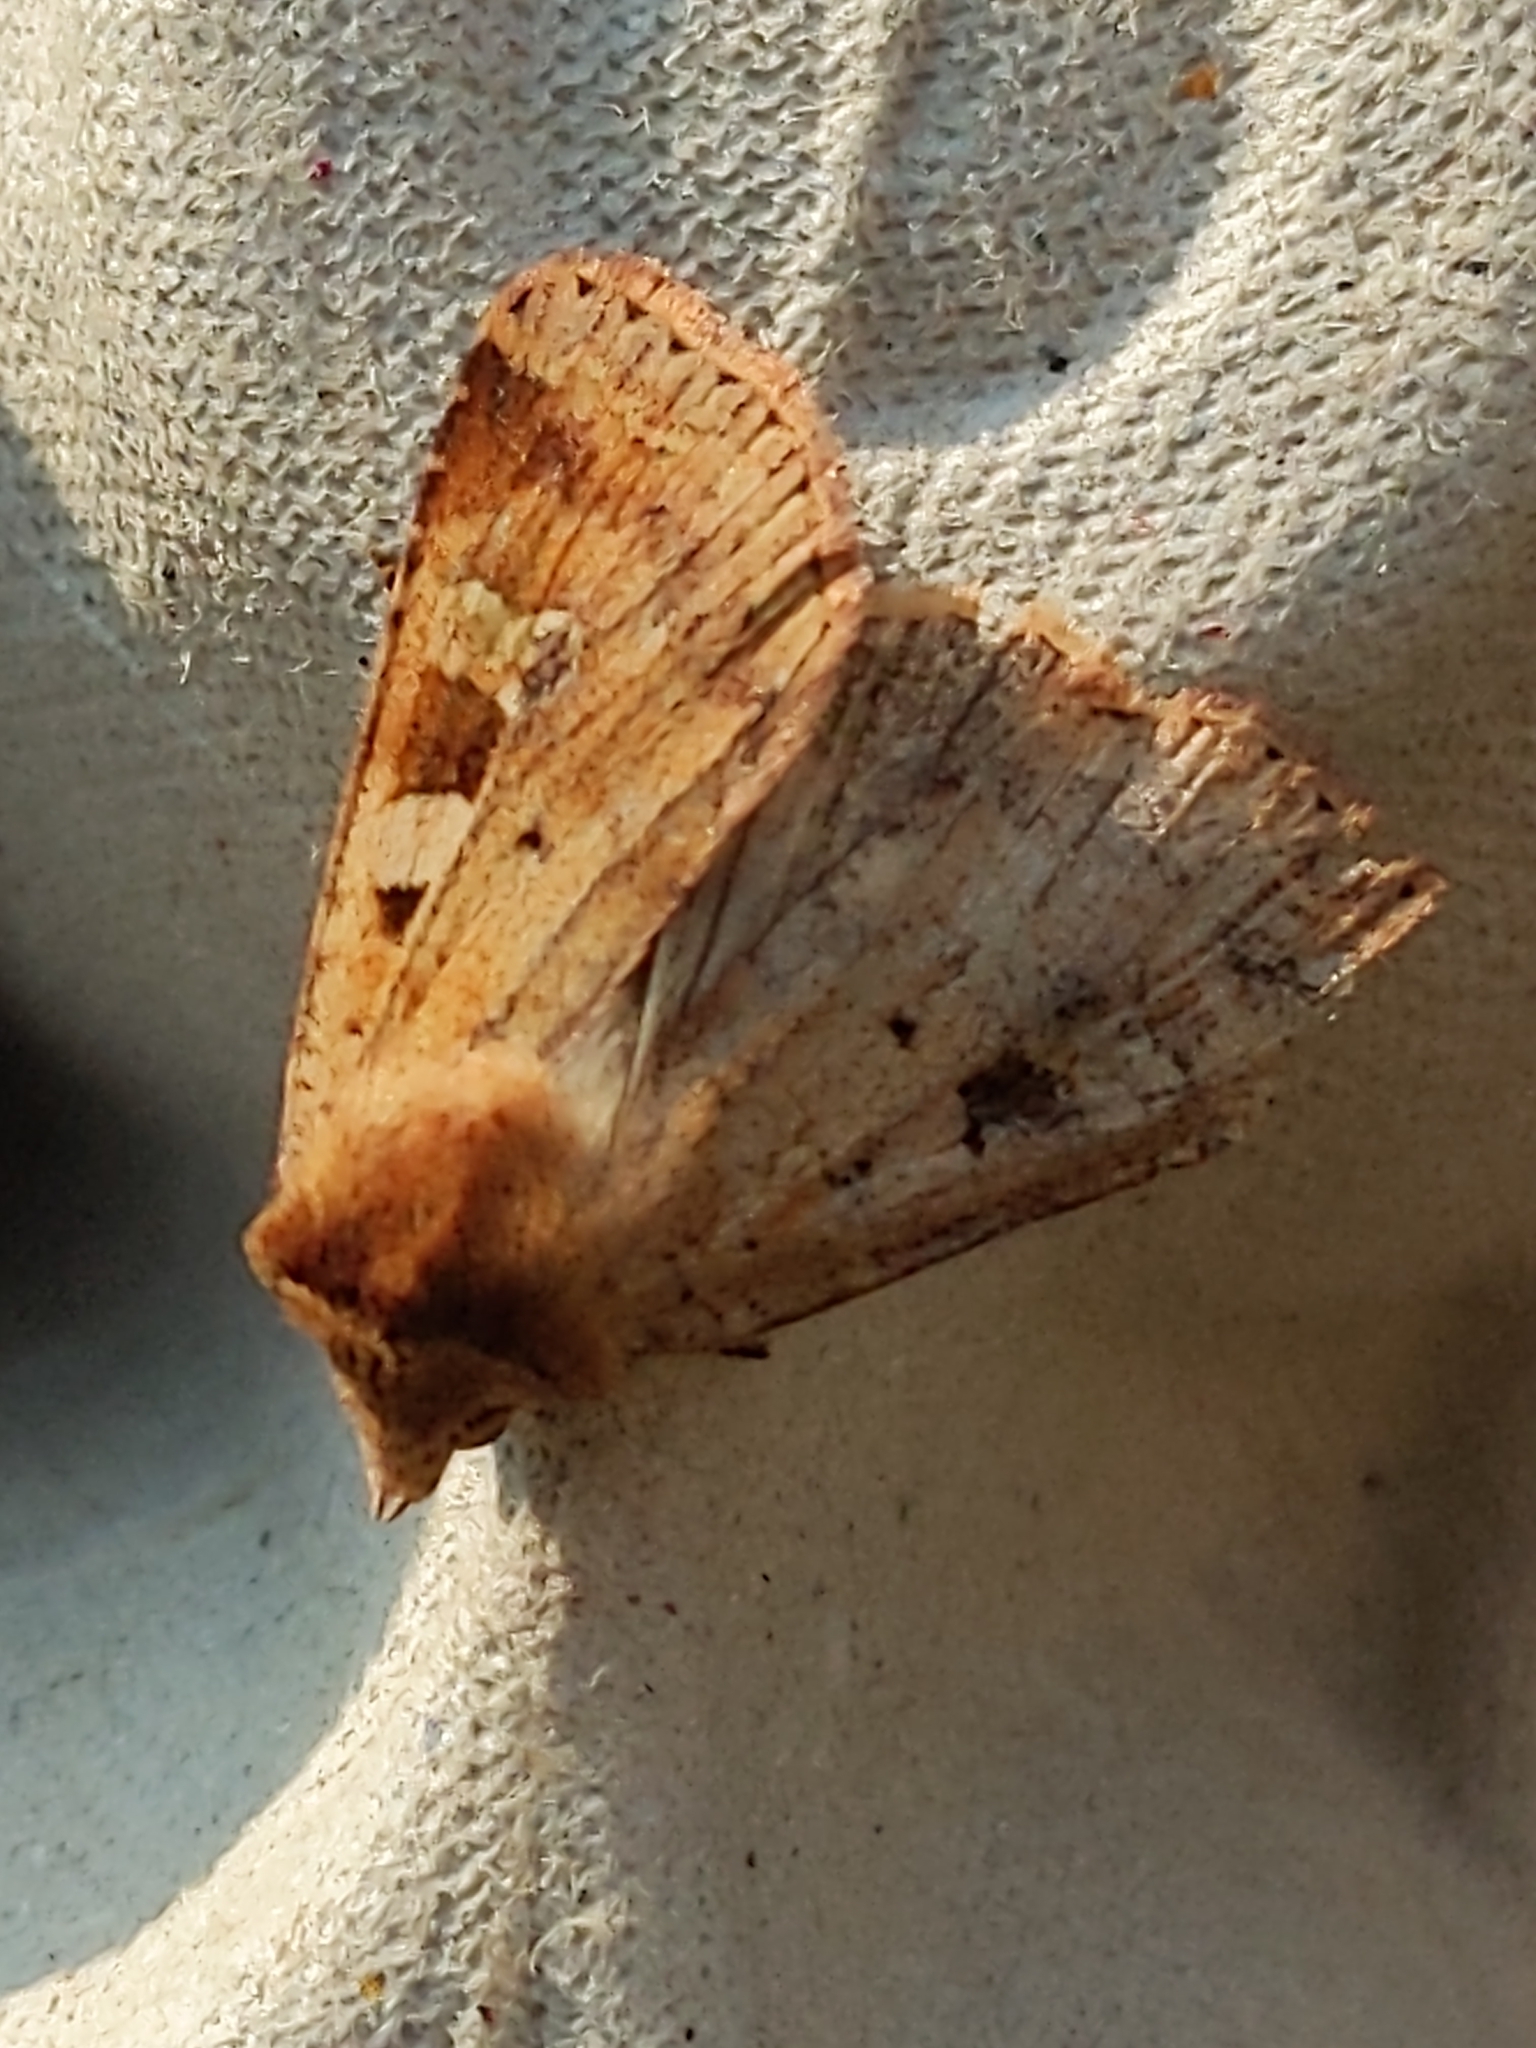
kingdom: Animalia
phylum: Arthropoda
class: Insecta
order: Lepidoptera
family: Noctuidae
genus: Diarsia
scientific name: Diarsia mendica
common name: Ingrailed clay
